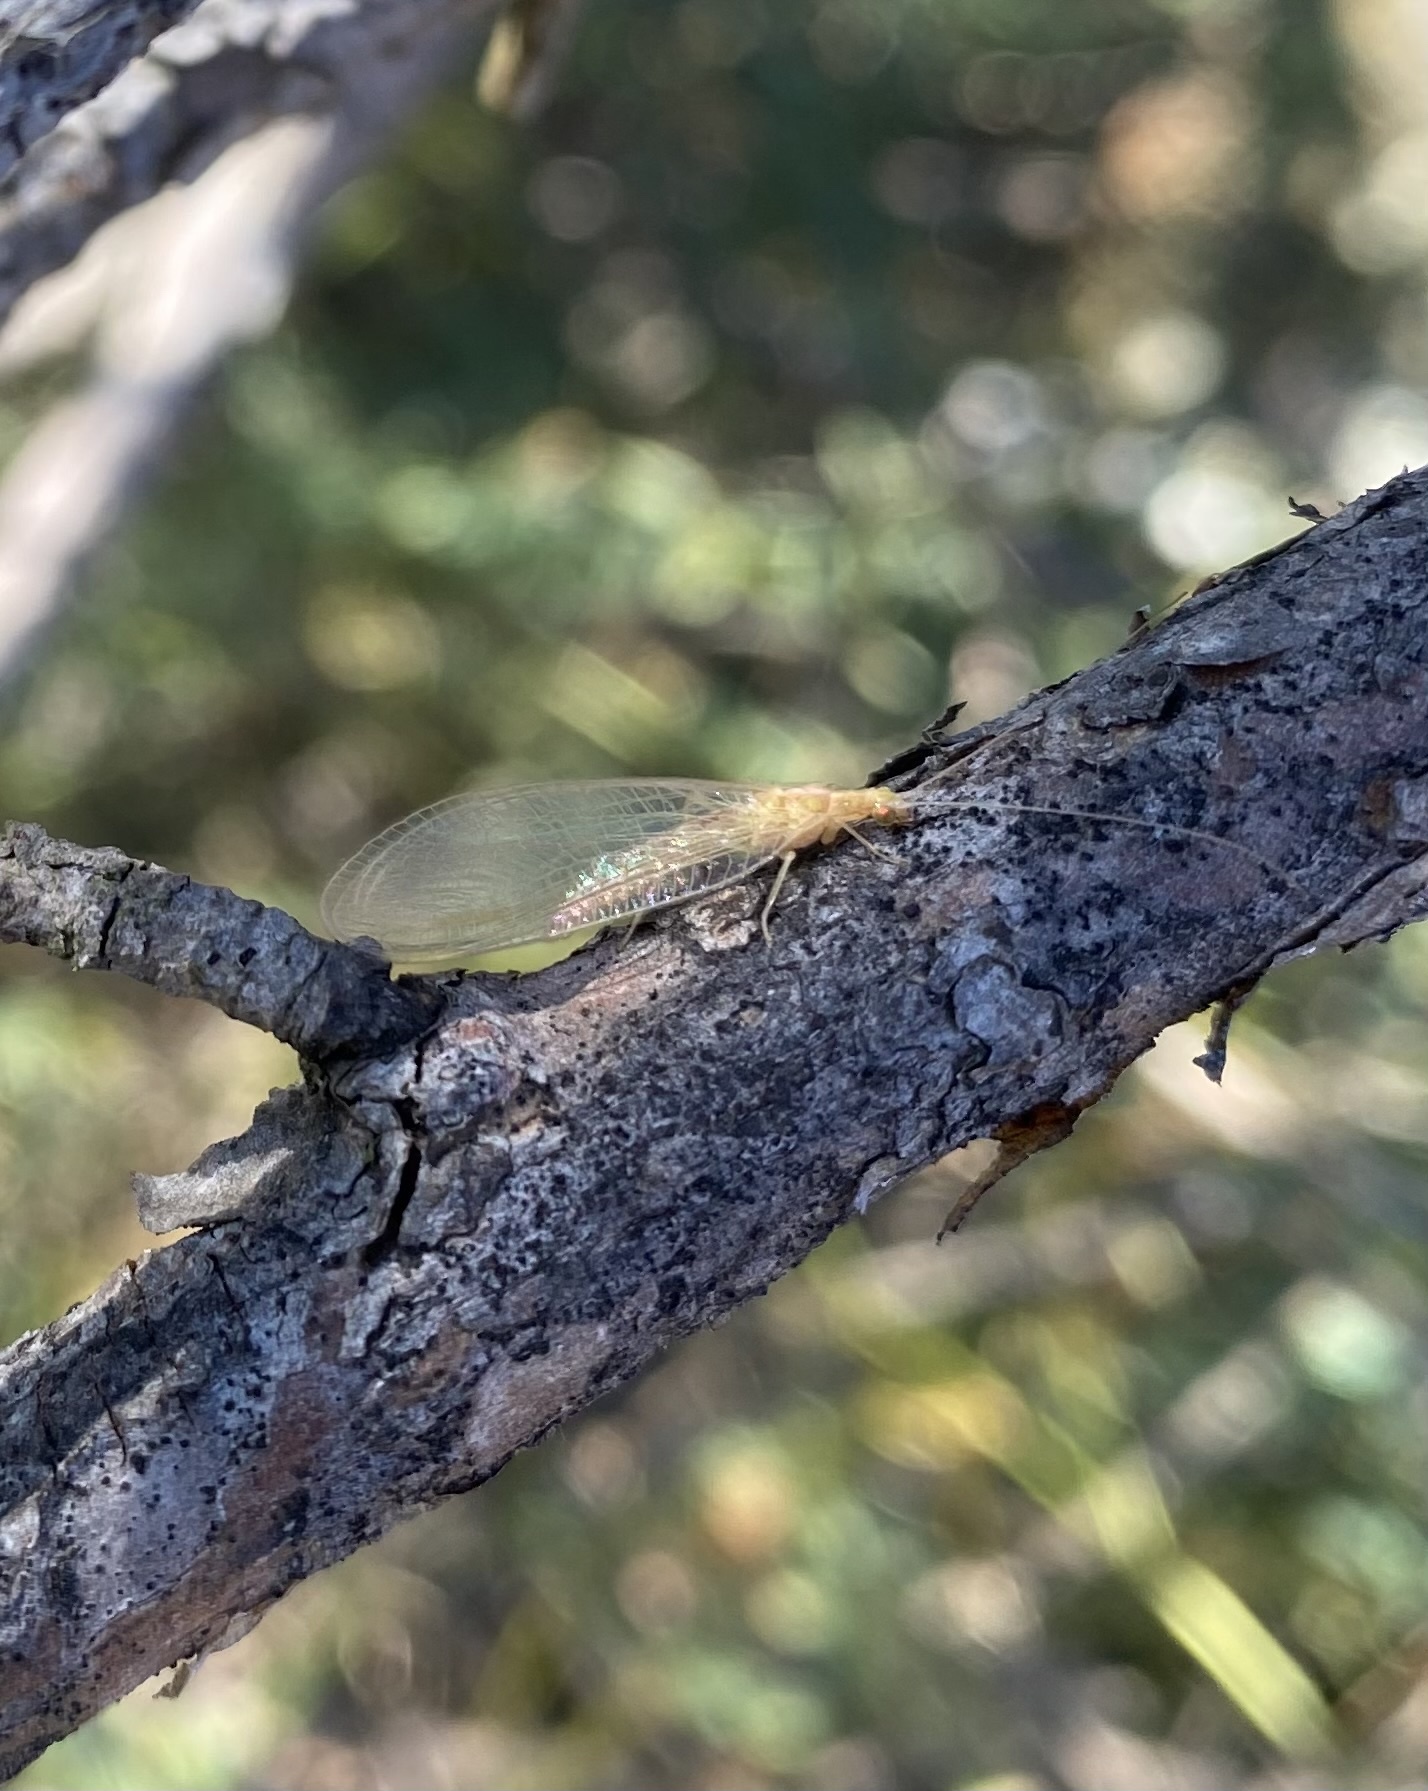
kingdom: Animalia
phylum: Arthropoda
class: Insecta
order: Neuroptera
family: Chrysopidae
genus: Chrysoperla
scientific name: Chrysoperla
